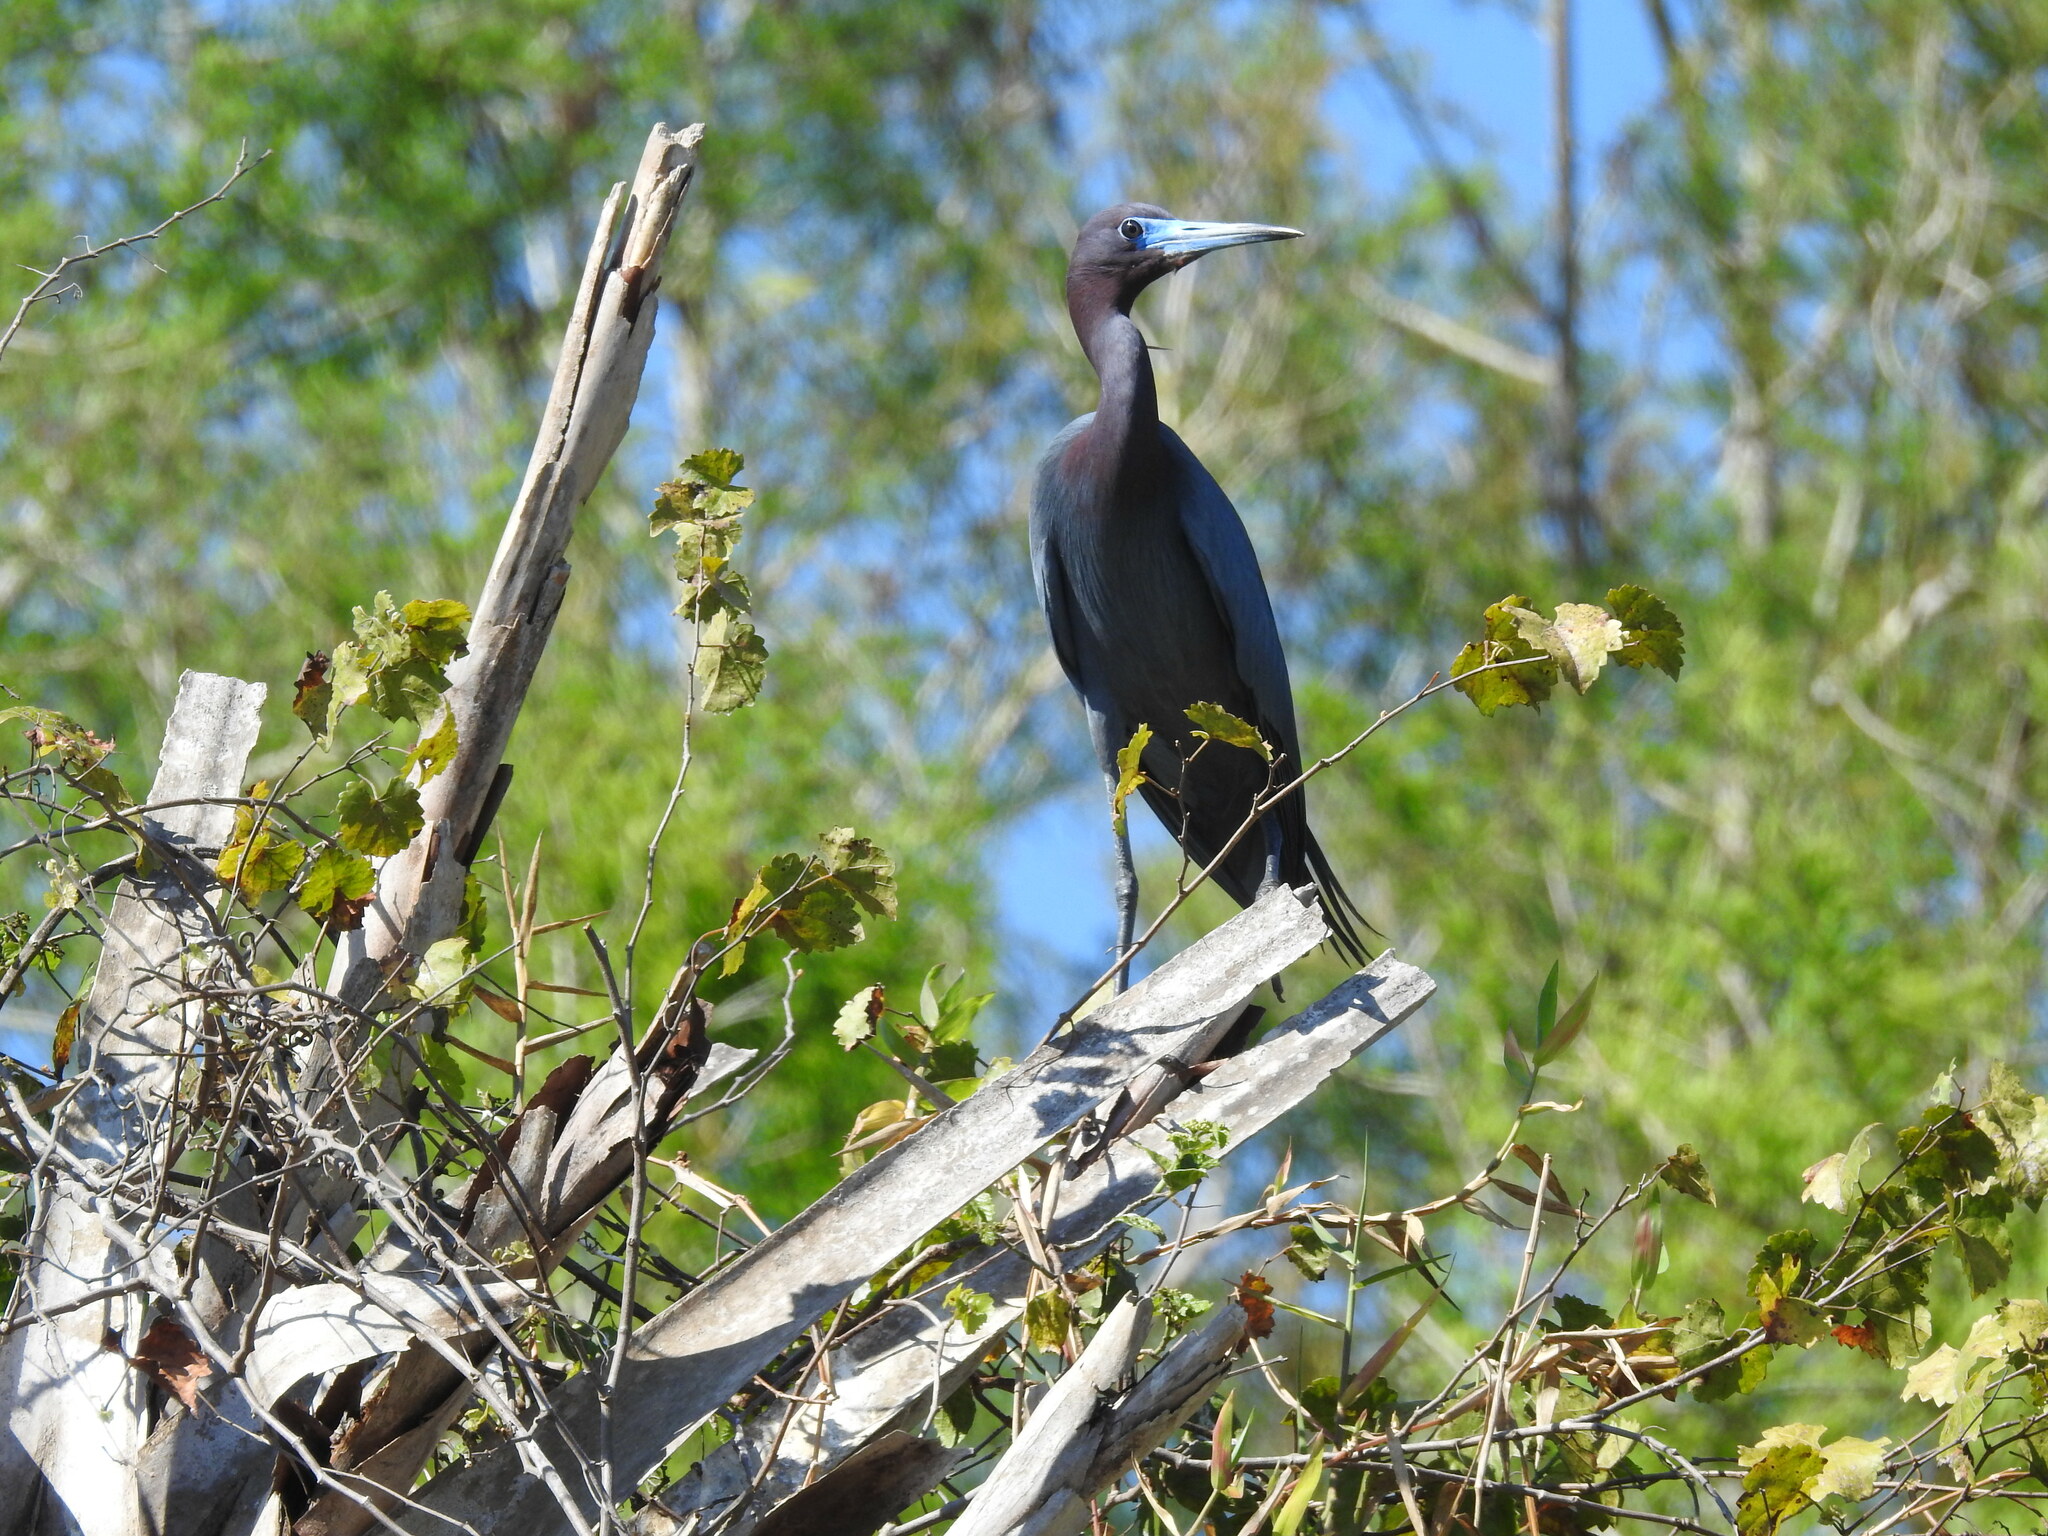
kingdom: Animalia
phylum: Chordata
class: Aves
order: Pelecaniformes
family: Ardeidae
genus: Egretta
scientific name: Egretta caerulea
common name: Little blue heron
